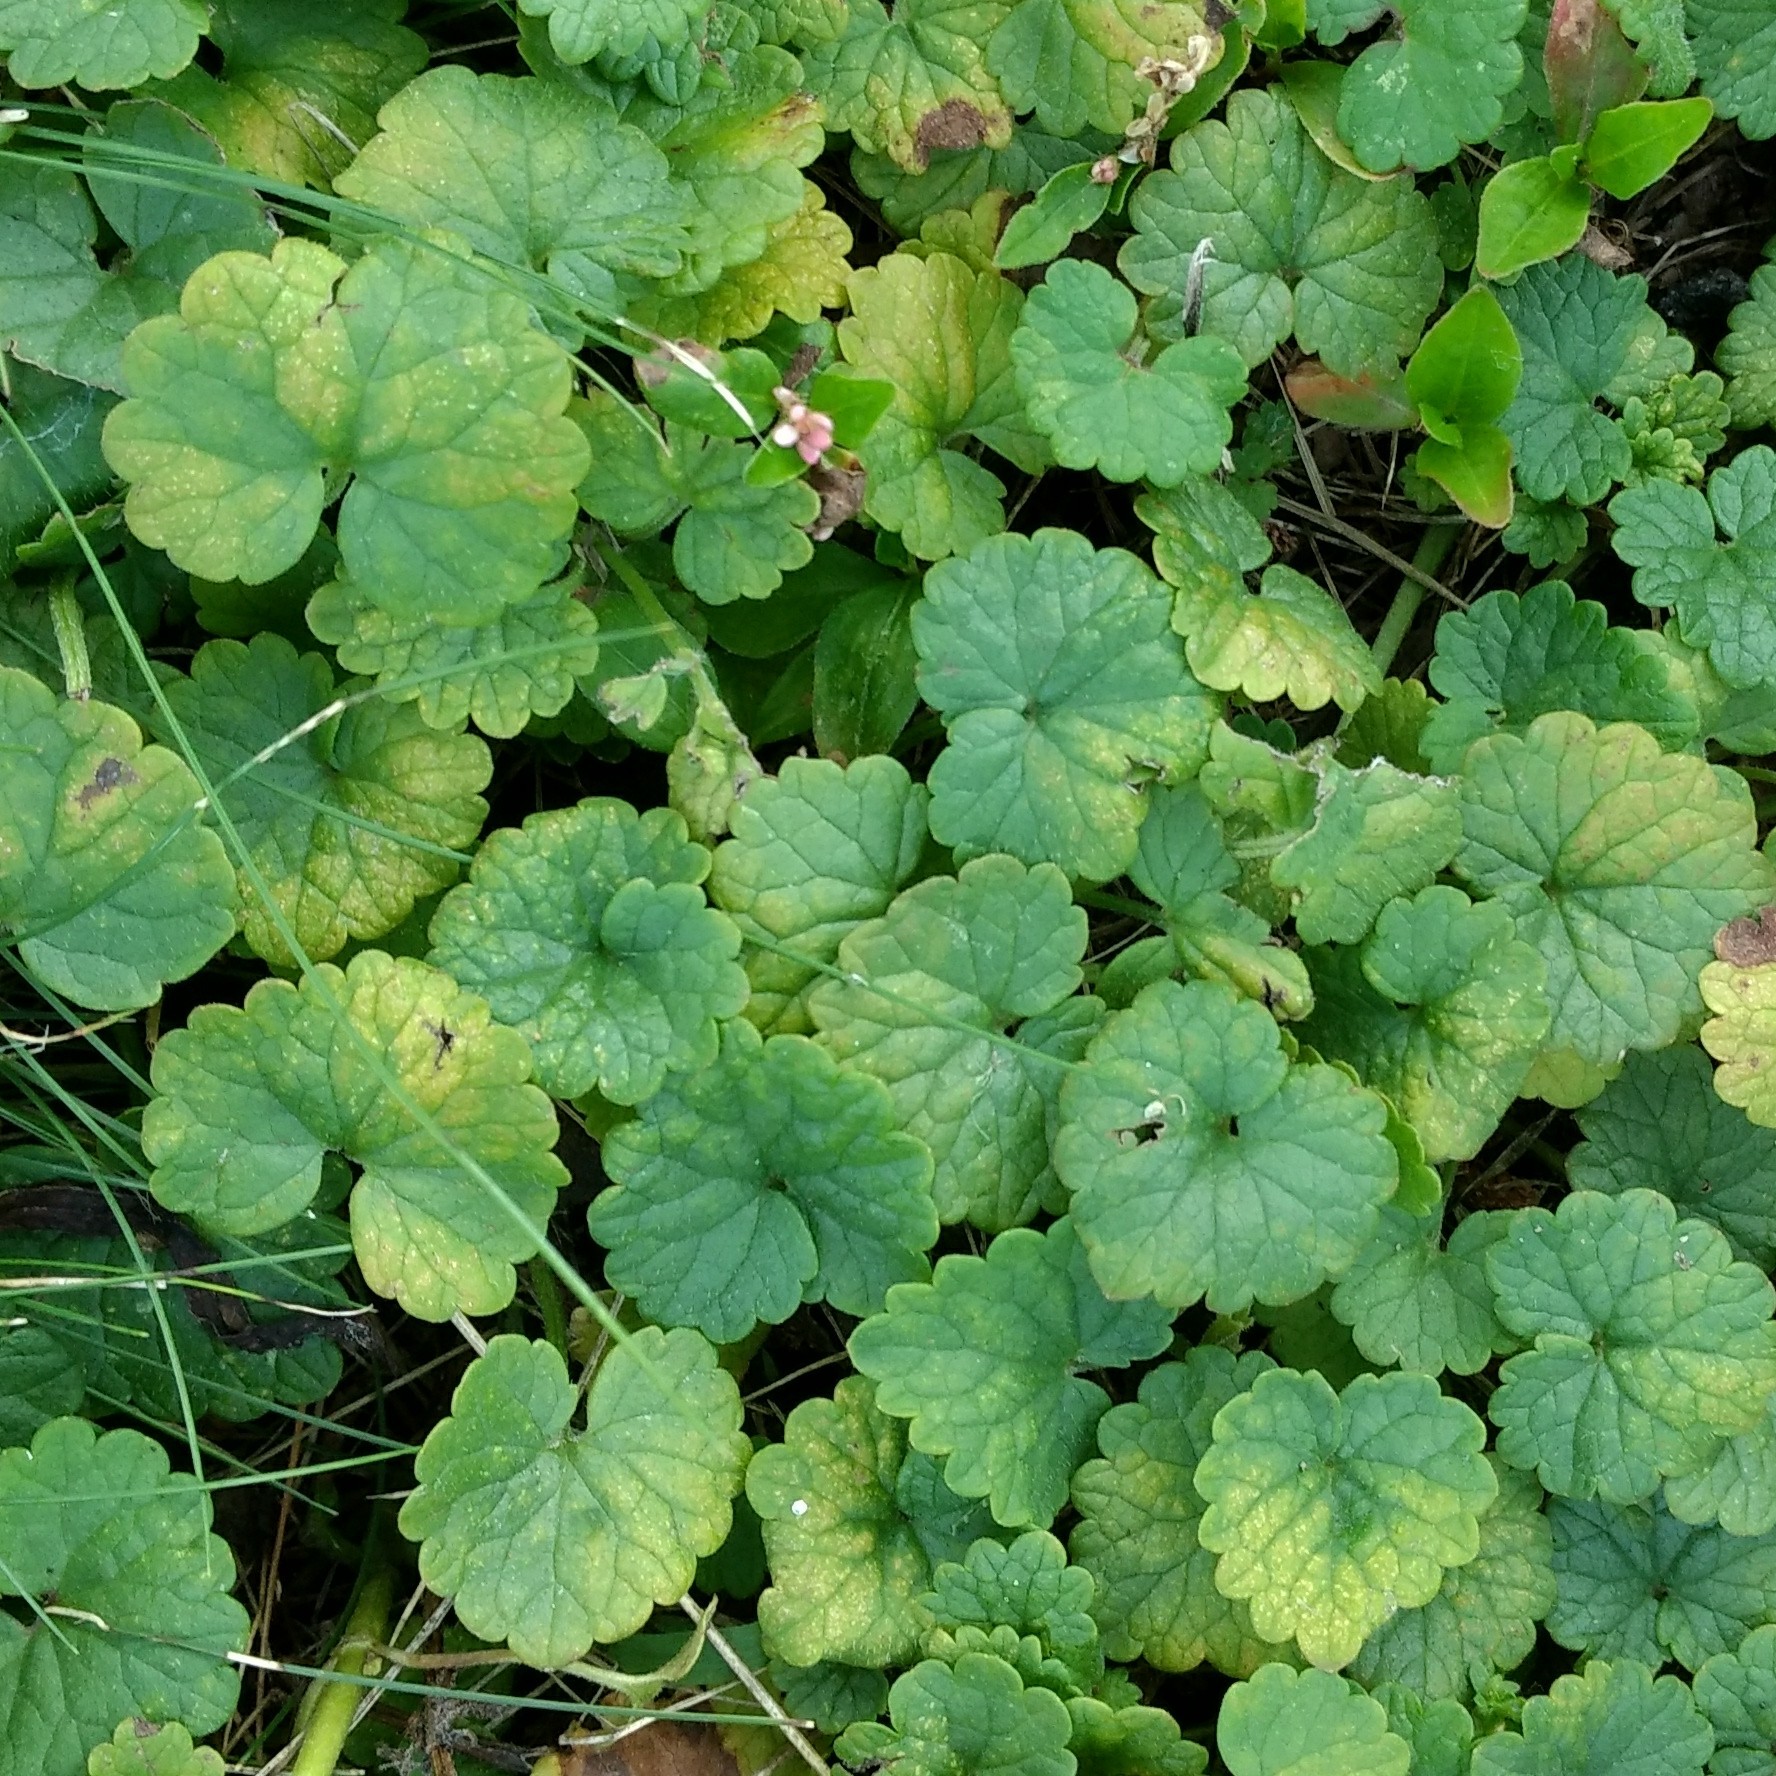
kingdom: Plantae
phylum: Tracheophyta
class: Magnoliopsida
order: Lamiales
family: Lamiaceae
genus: Glechoma
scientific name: Glechoma hederacea
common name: Ground ivy
